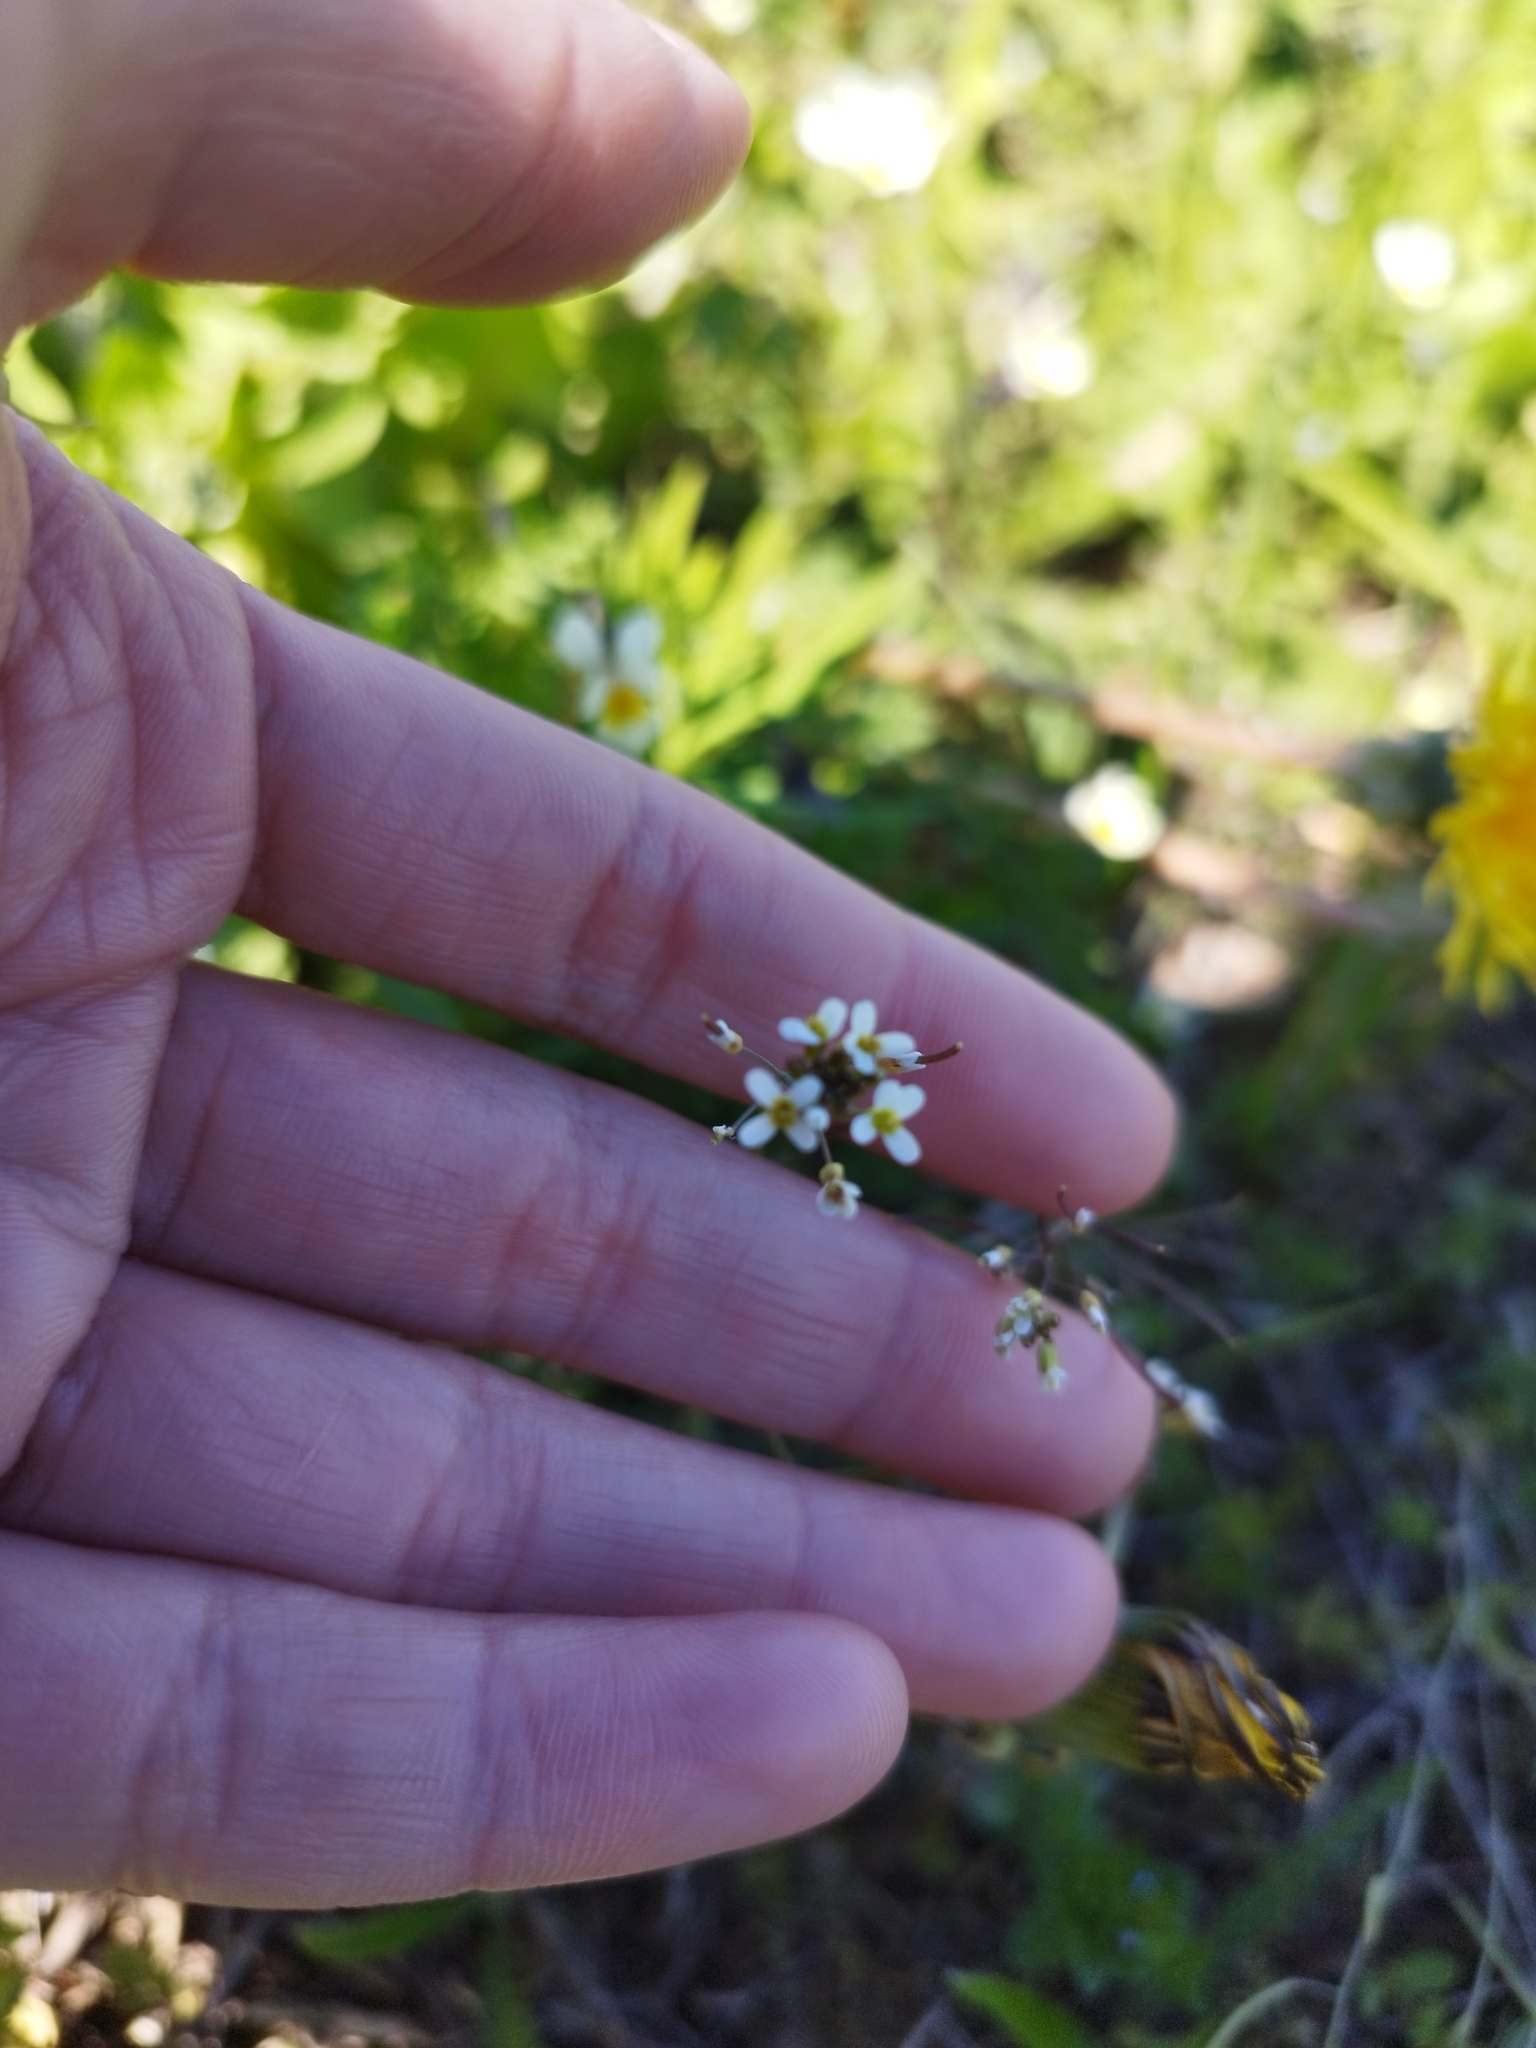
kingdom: Plantae
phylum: Tracheophyta
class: Magnoliopsida
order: Brassicales
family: Brassicaceae
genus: Arabidopsis
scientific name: Arabidopsis thaliana
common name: Thale cress
